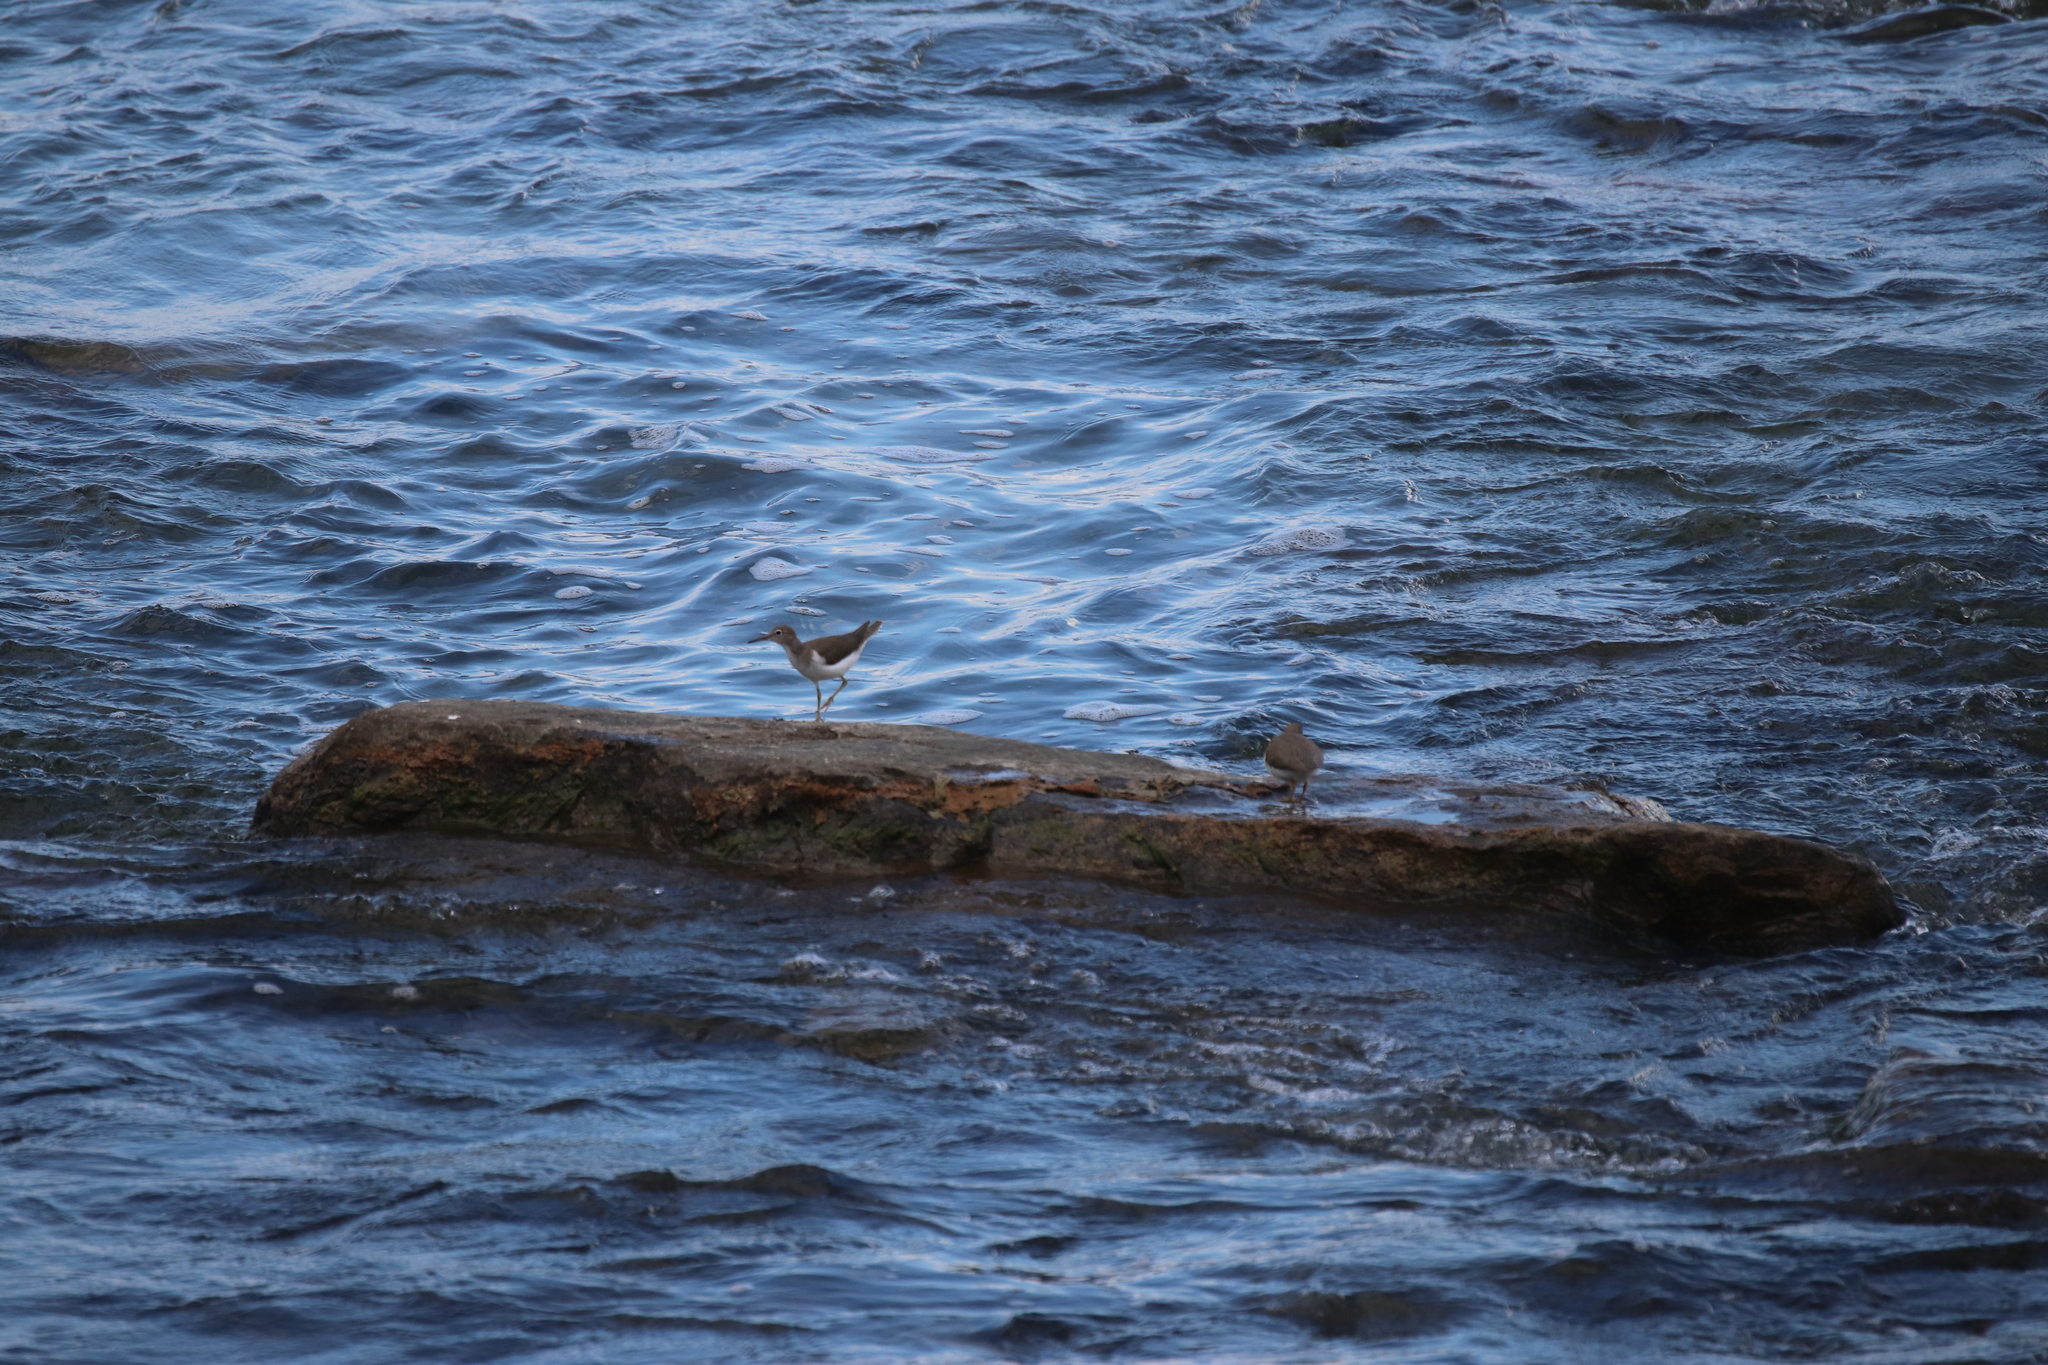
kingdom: Animalia
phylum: Chordata
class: Aves
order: Charadriiformes
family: Scolopacidae
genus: Actitis
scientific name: Actitis macularius
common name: Spotted sandpiper
